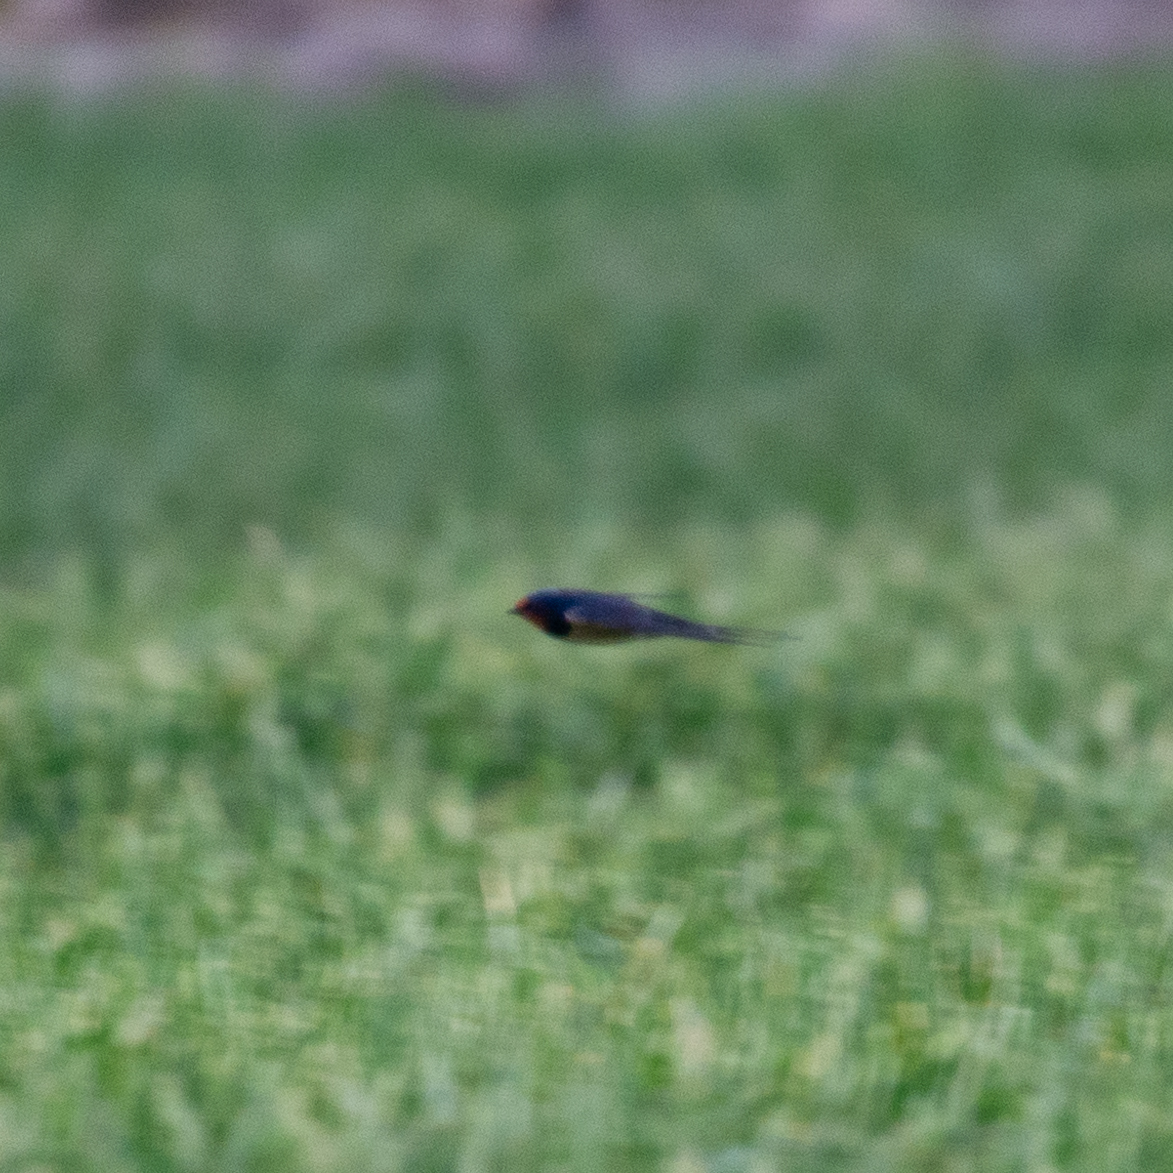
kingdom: Animalia
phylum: Chordata
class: Aves
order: Passeriformes
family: Hirundinidae
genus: Hirundo
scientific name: Hirundo rustica
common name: Barn swallow
